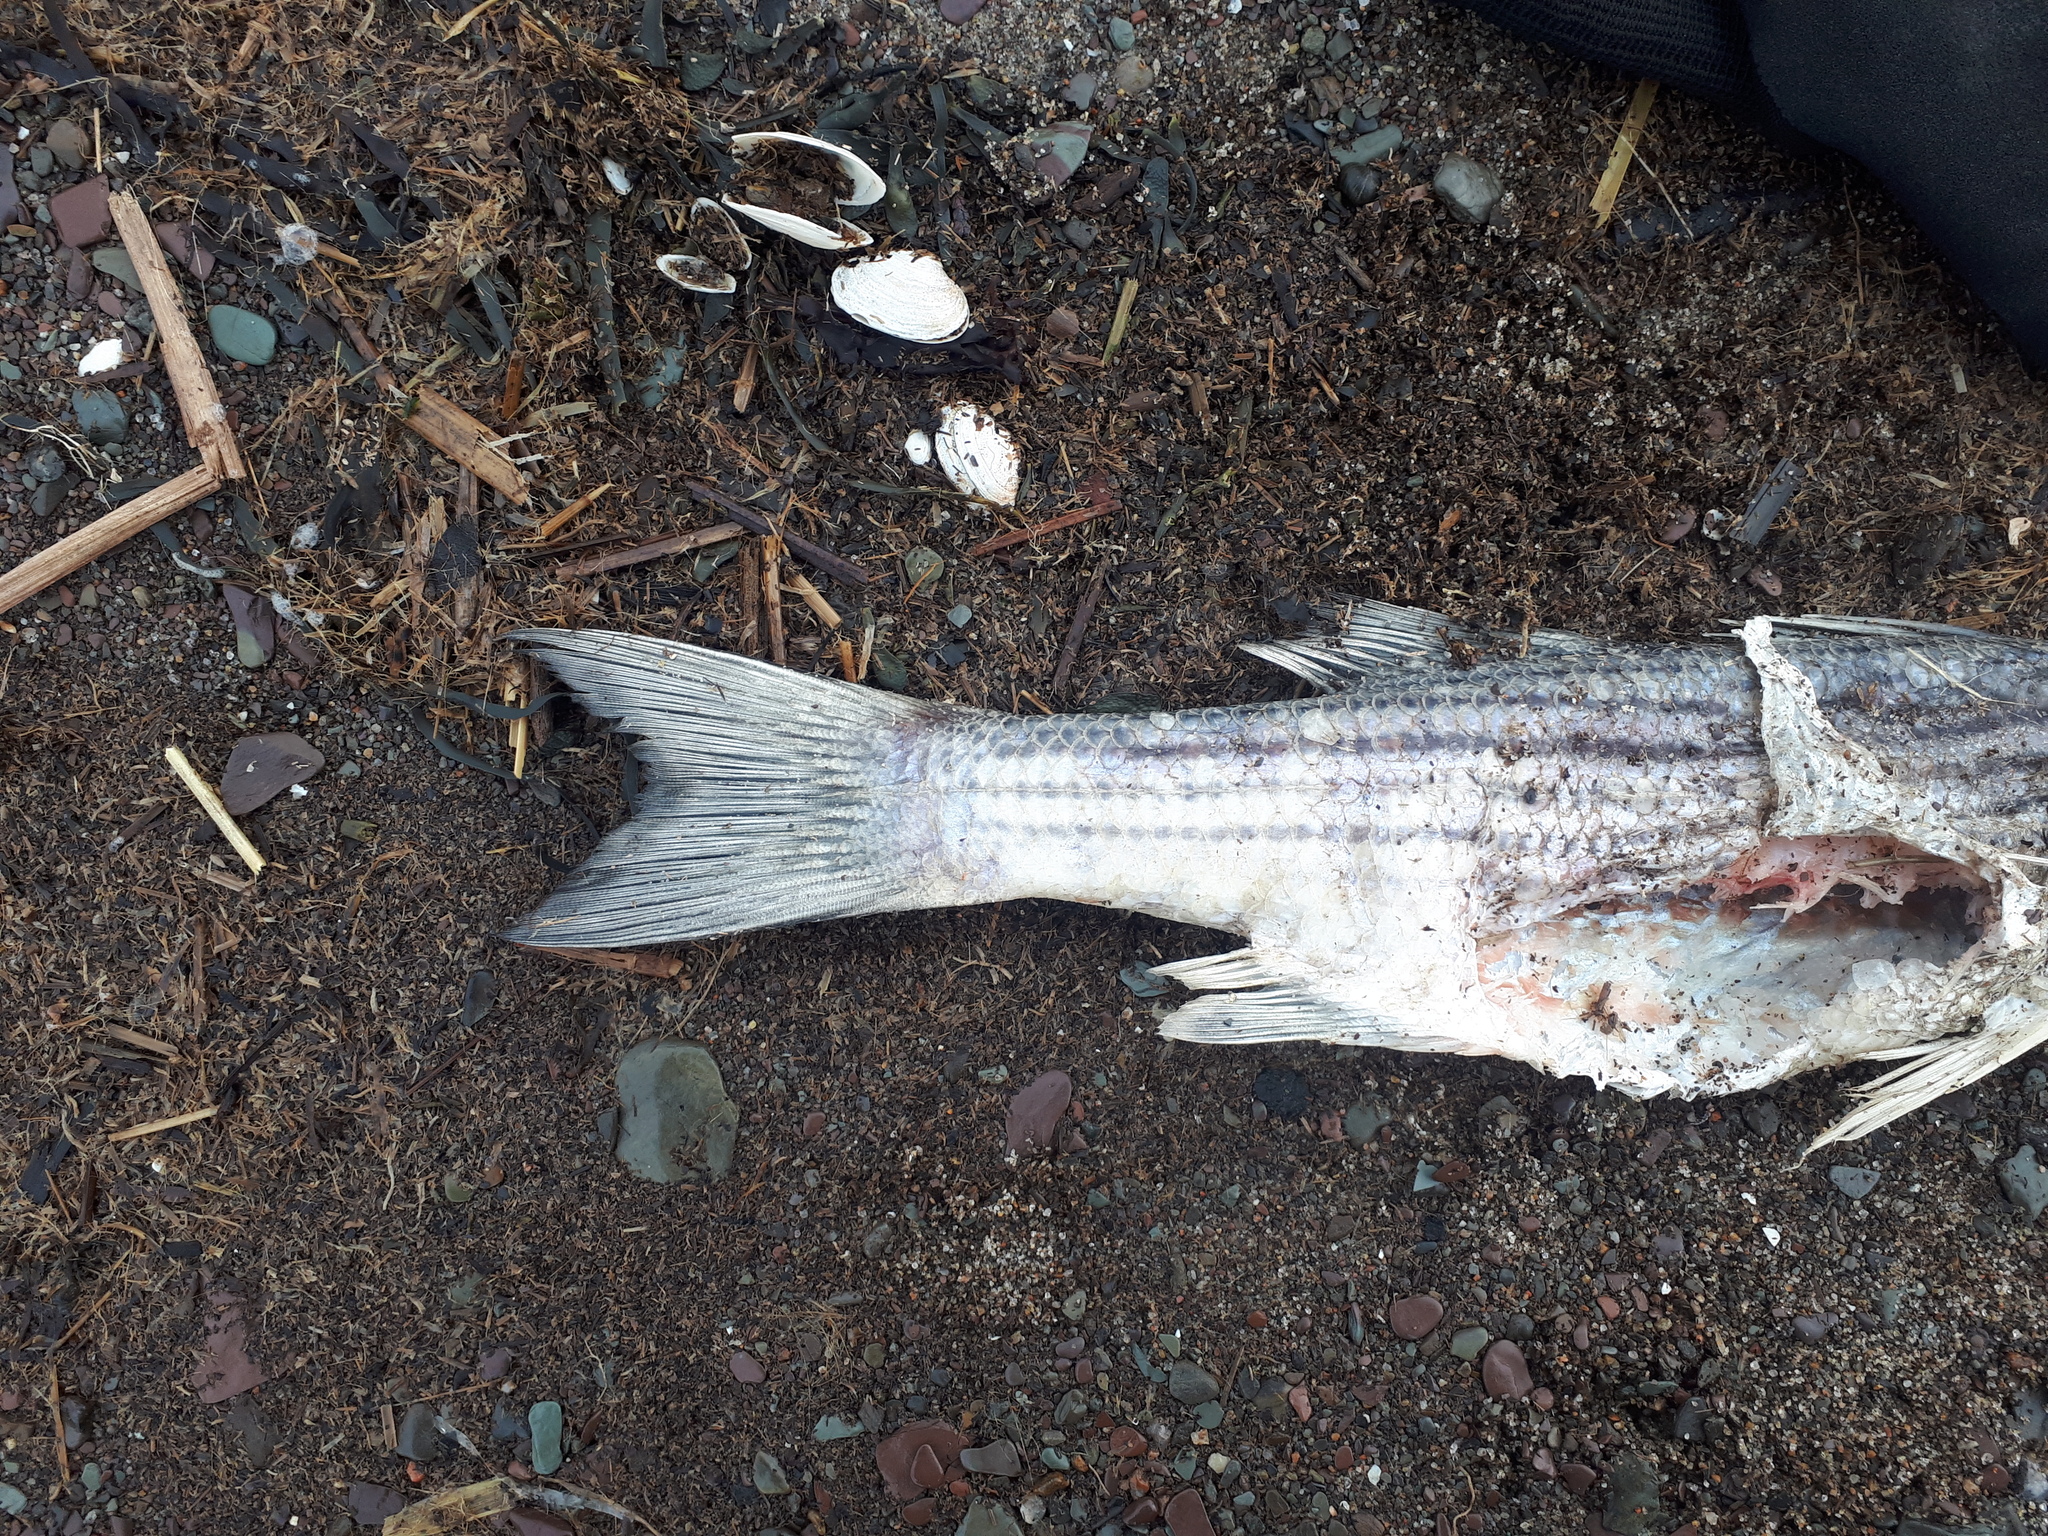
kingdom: Animalia
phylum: Chordata
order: Perciformes
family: Moronidae
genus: Morone
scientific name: Morone saxatilis
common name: Striped bass
